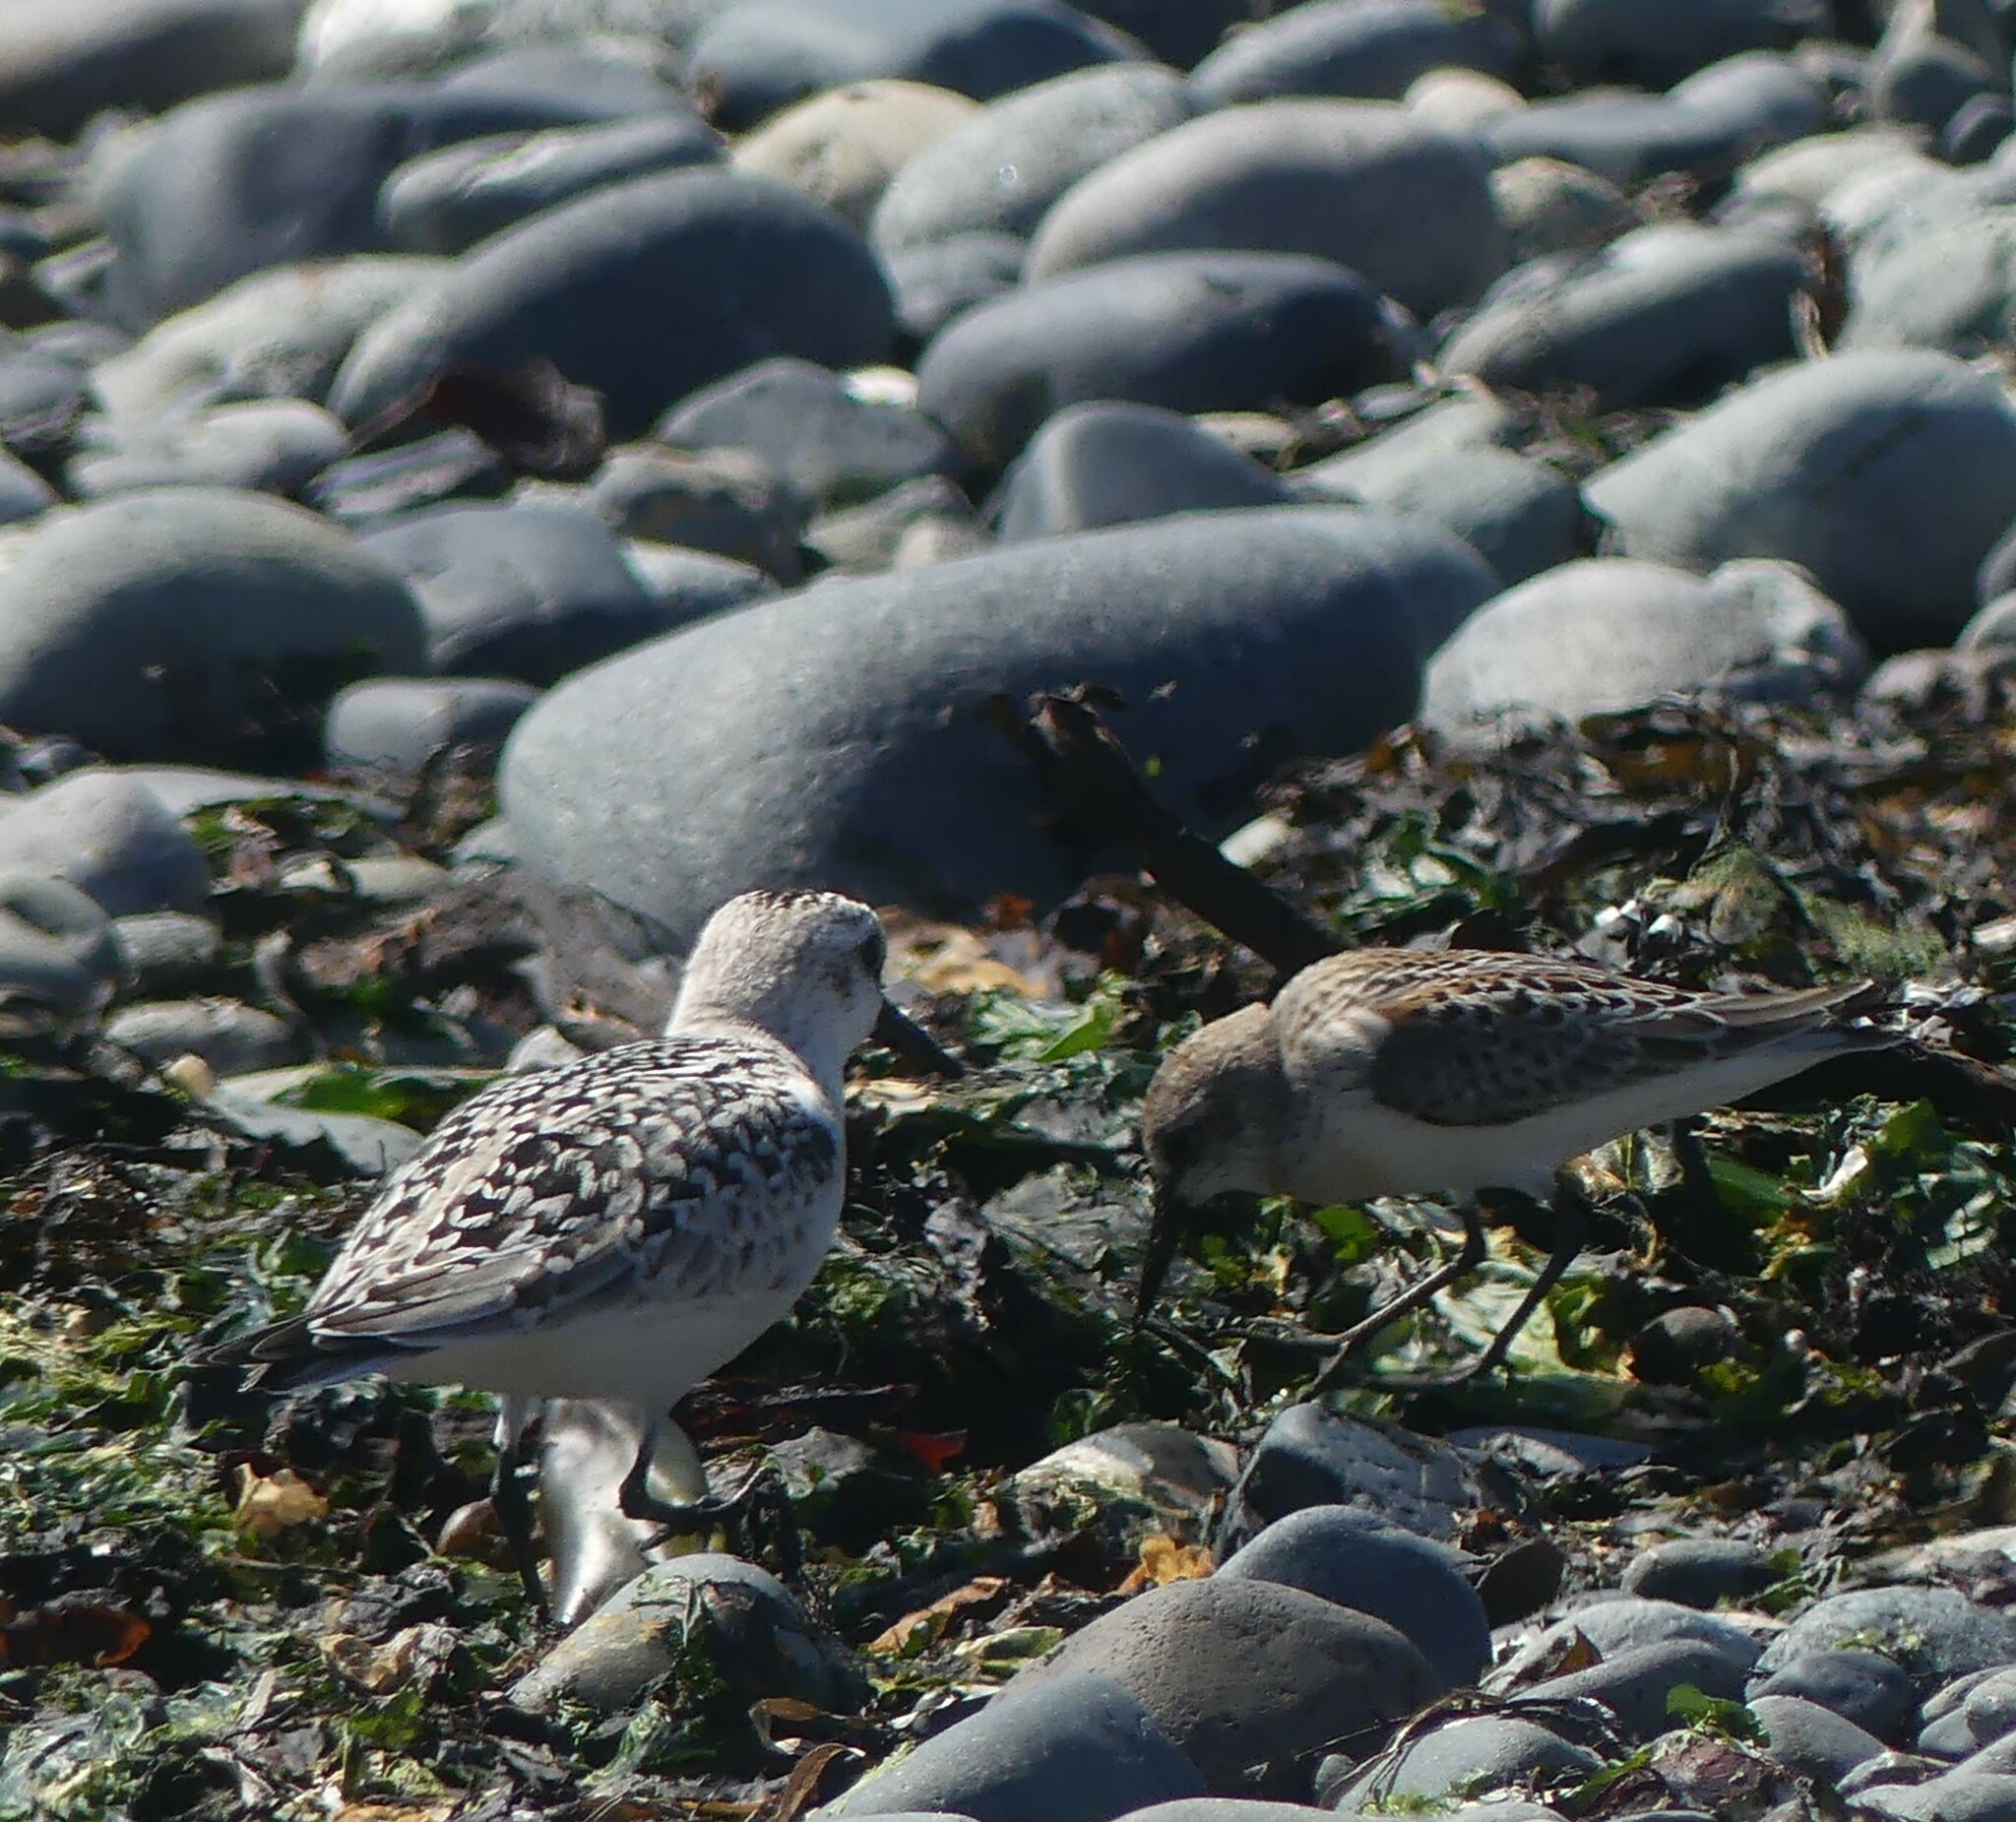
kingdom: Animalia
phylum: Chordata
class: Aves
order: Charadriiformes
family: Scolopacidae
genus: Calidris
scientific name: Calidris alba
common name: Sanderling
